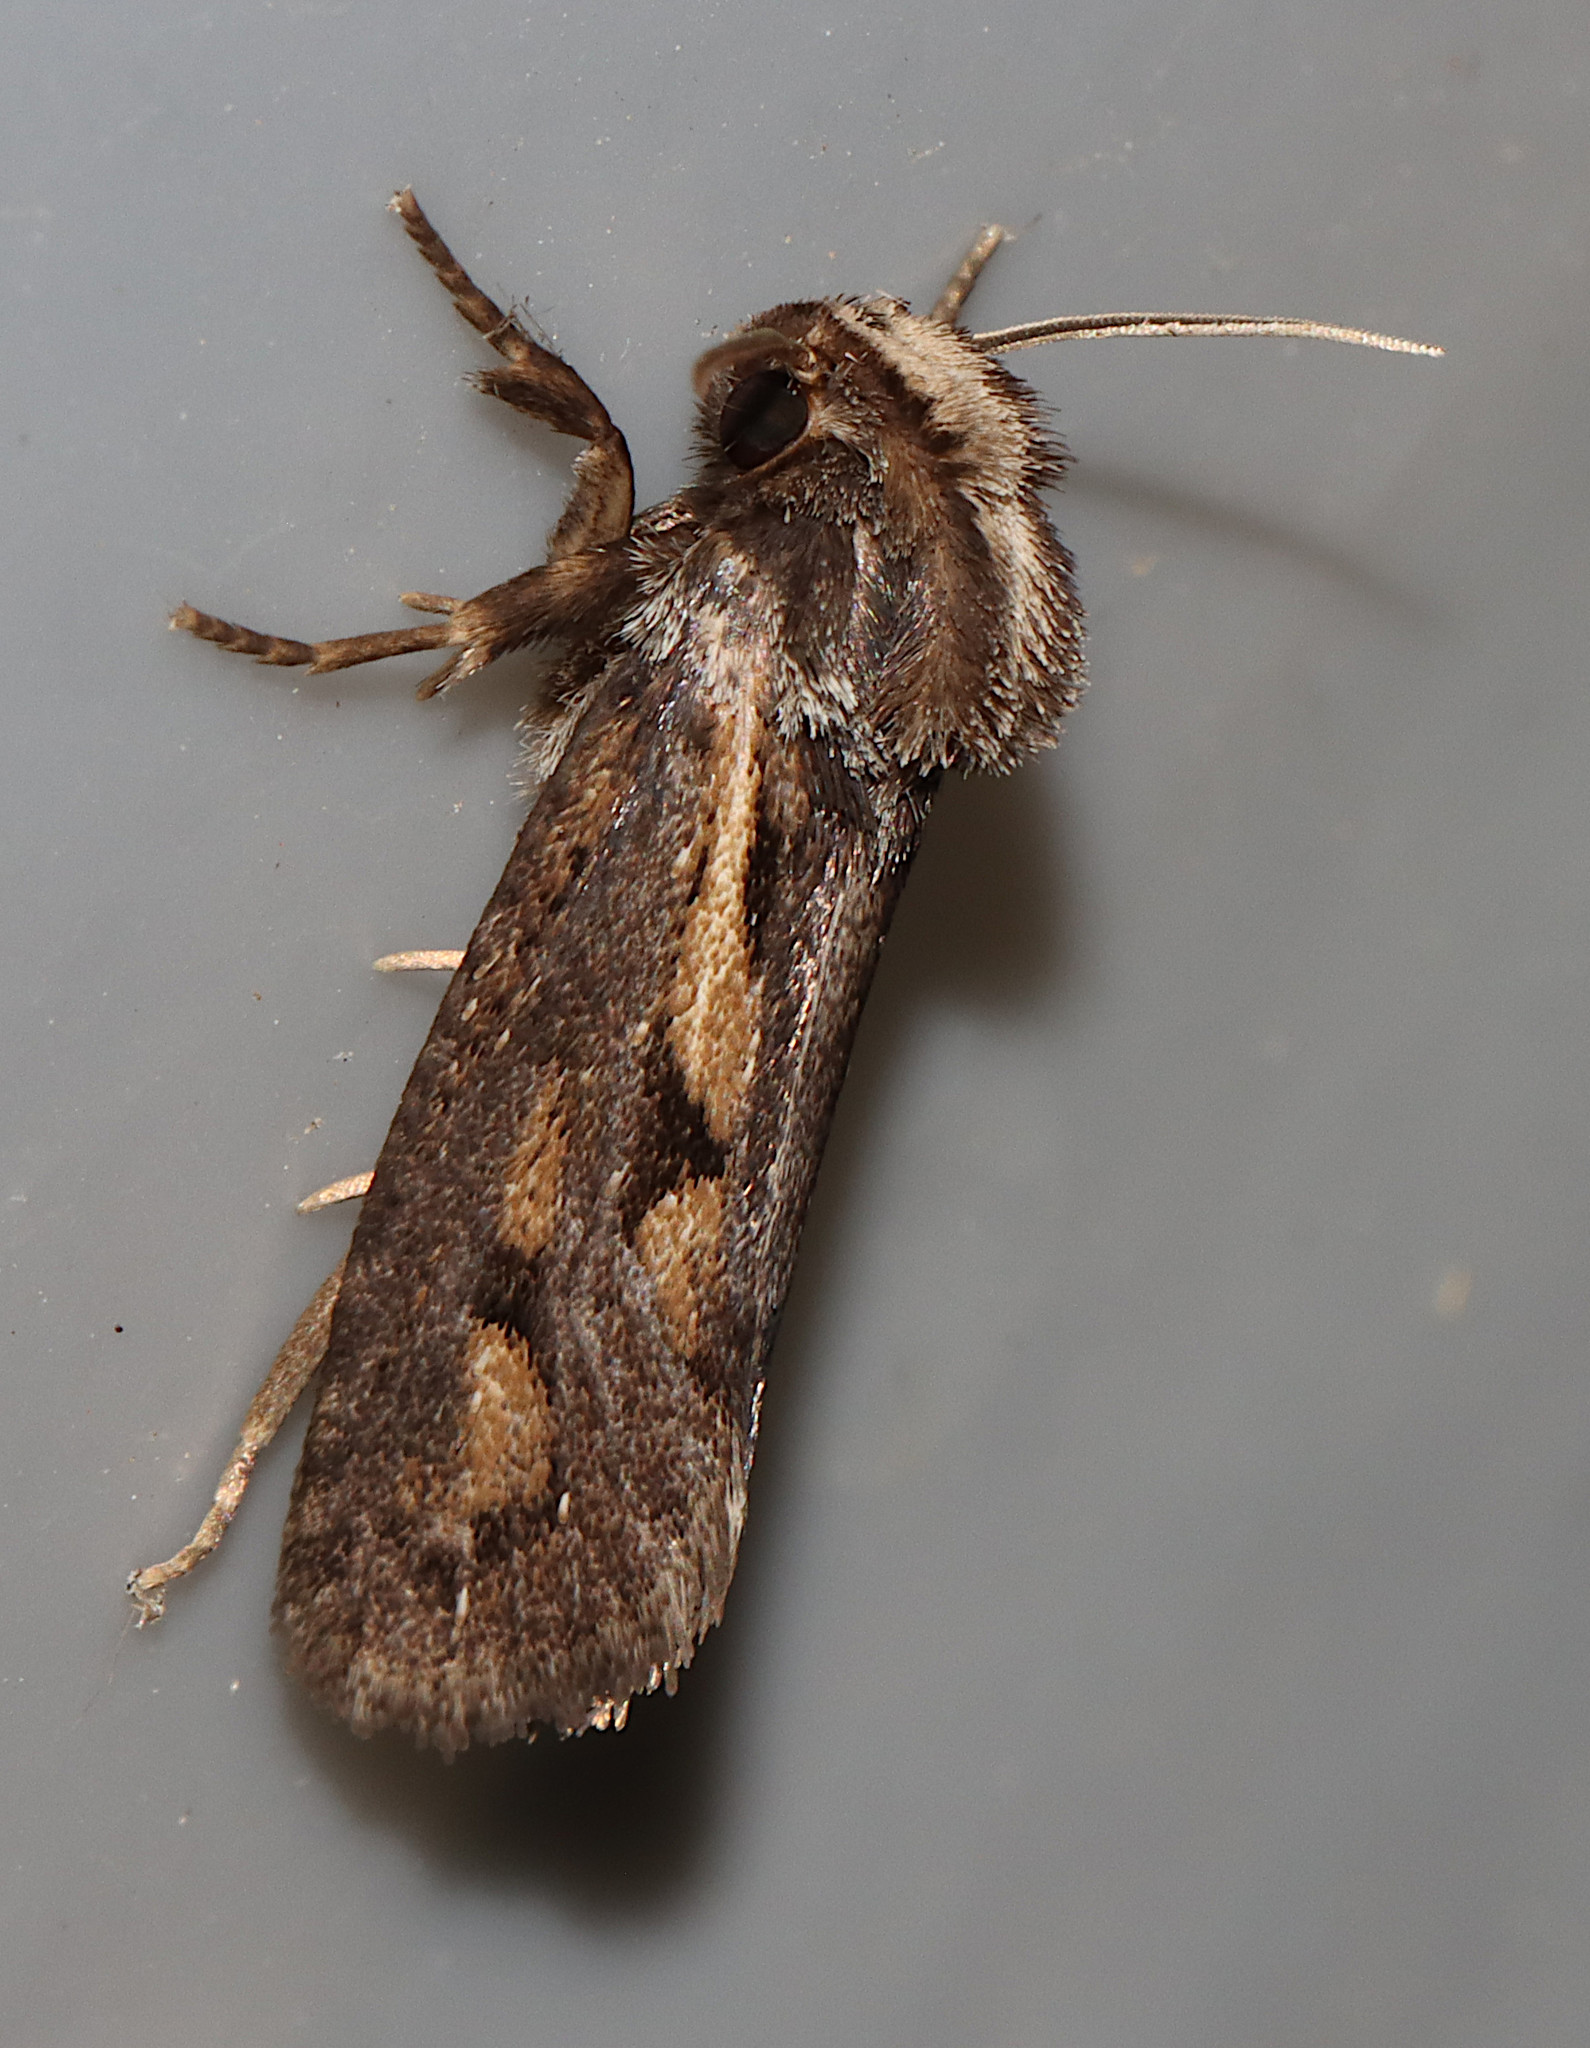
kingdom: Animalia
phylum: Arthropoda
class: Insecta
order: Lepidoptera
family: Tineidae
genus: Acrolophus
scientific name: Acrolophus popeanella
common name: Clemens' grass tubeworm moth
